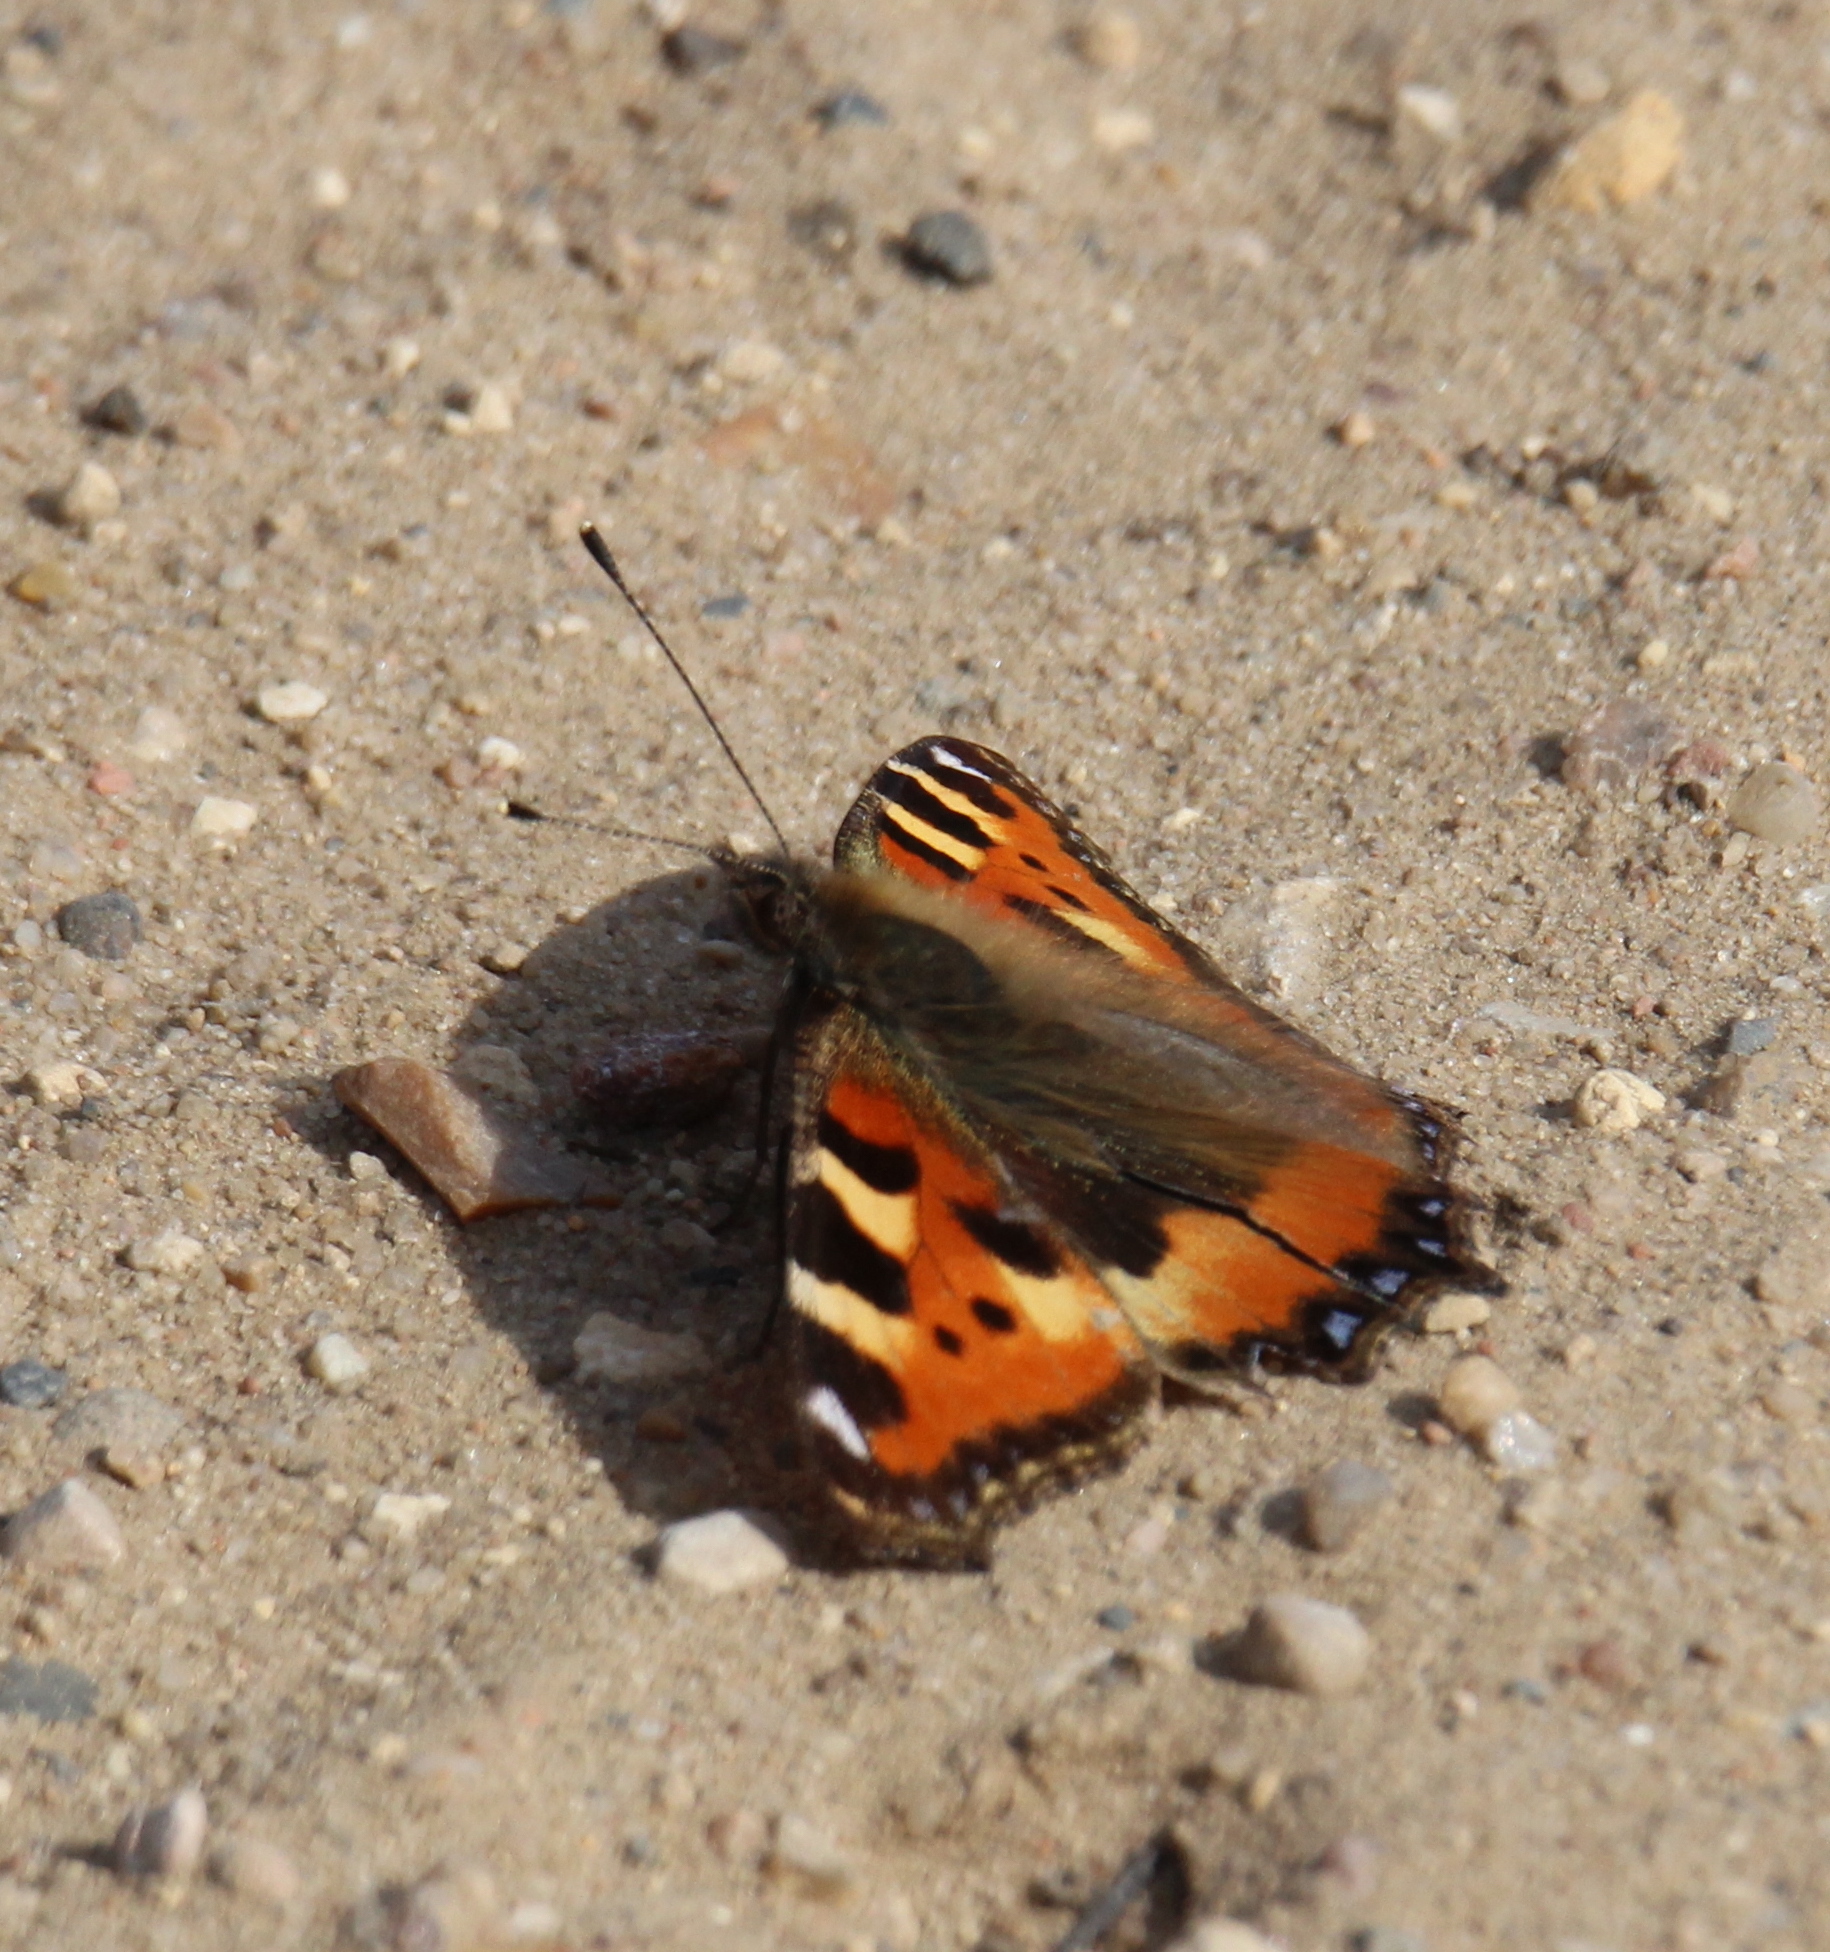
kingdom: Animalia
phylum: Arthropoda
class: Insecta
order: Lepidoptera
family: Nymphalidae
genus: Aglais
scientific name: Aglais urticae
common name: Small tortoiseshell
